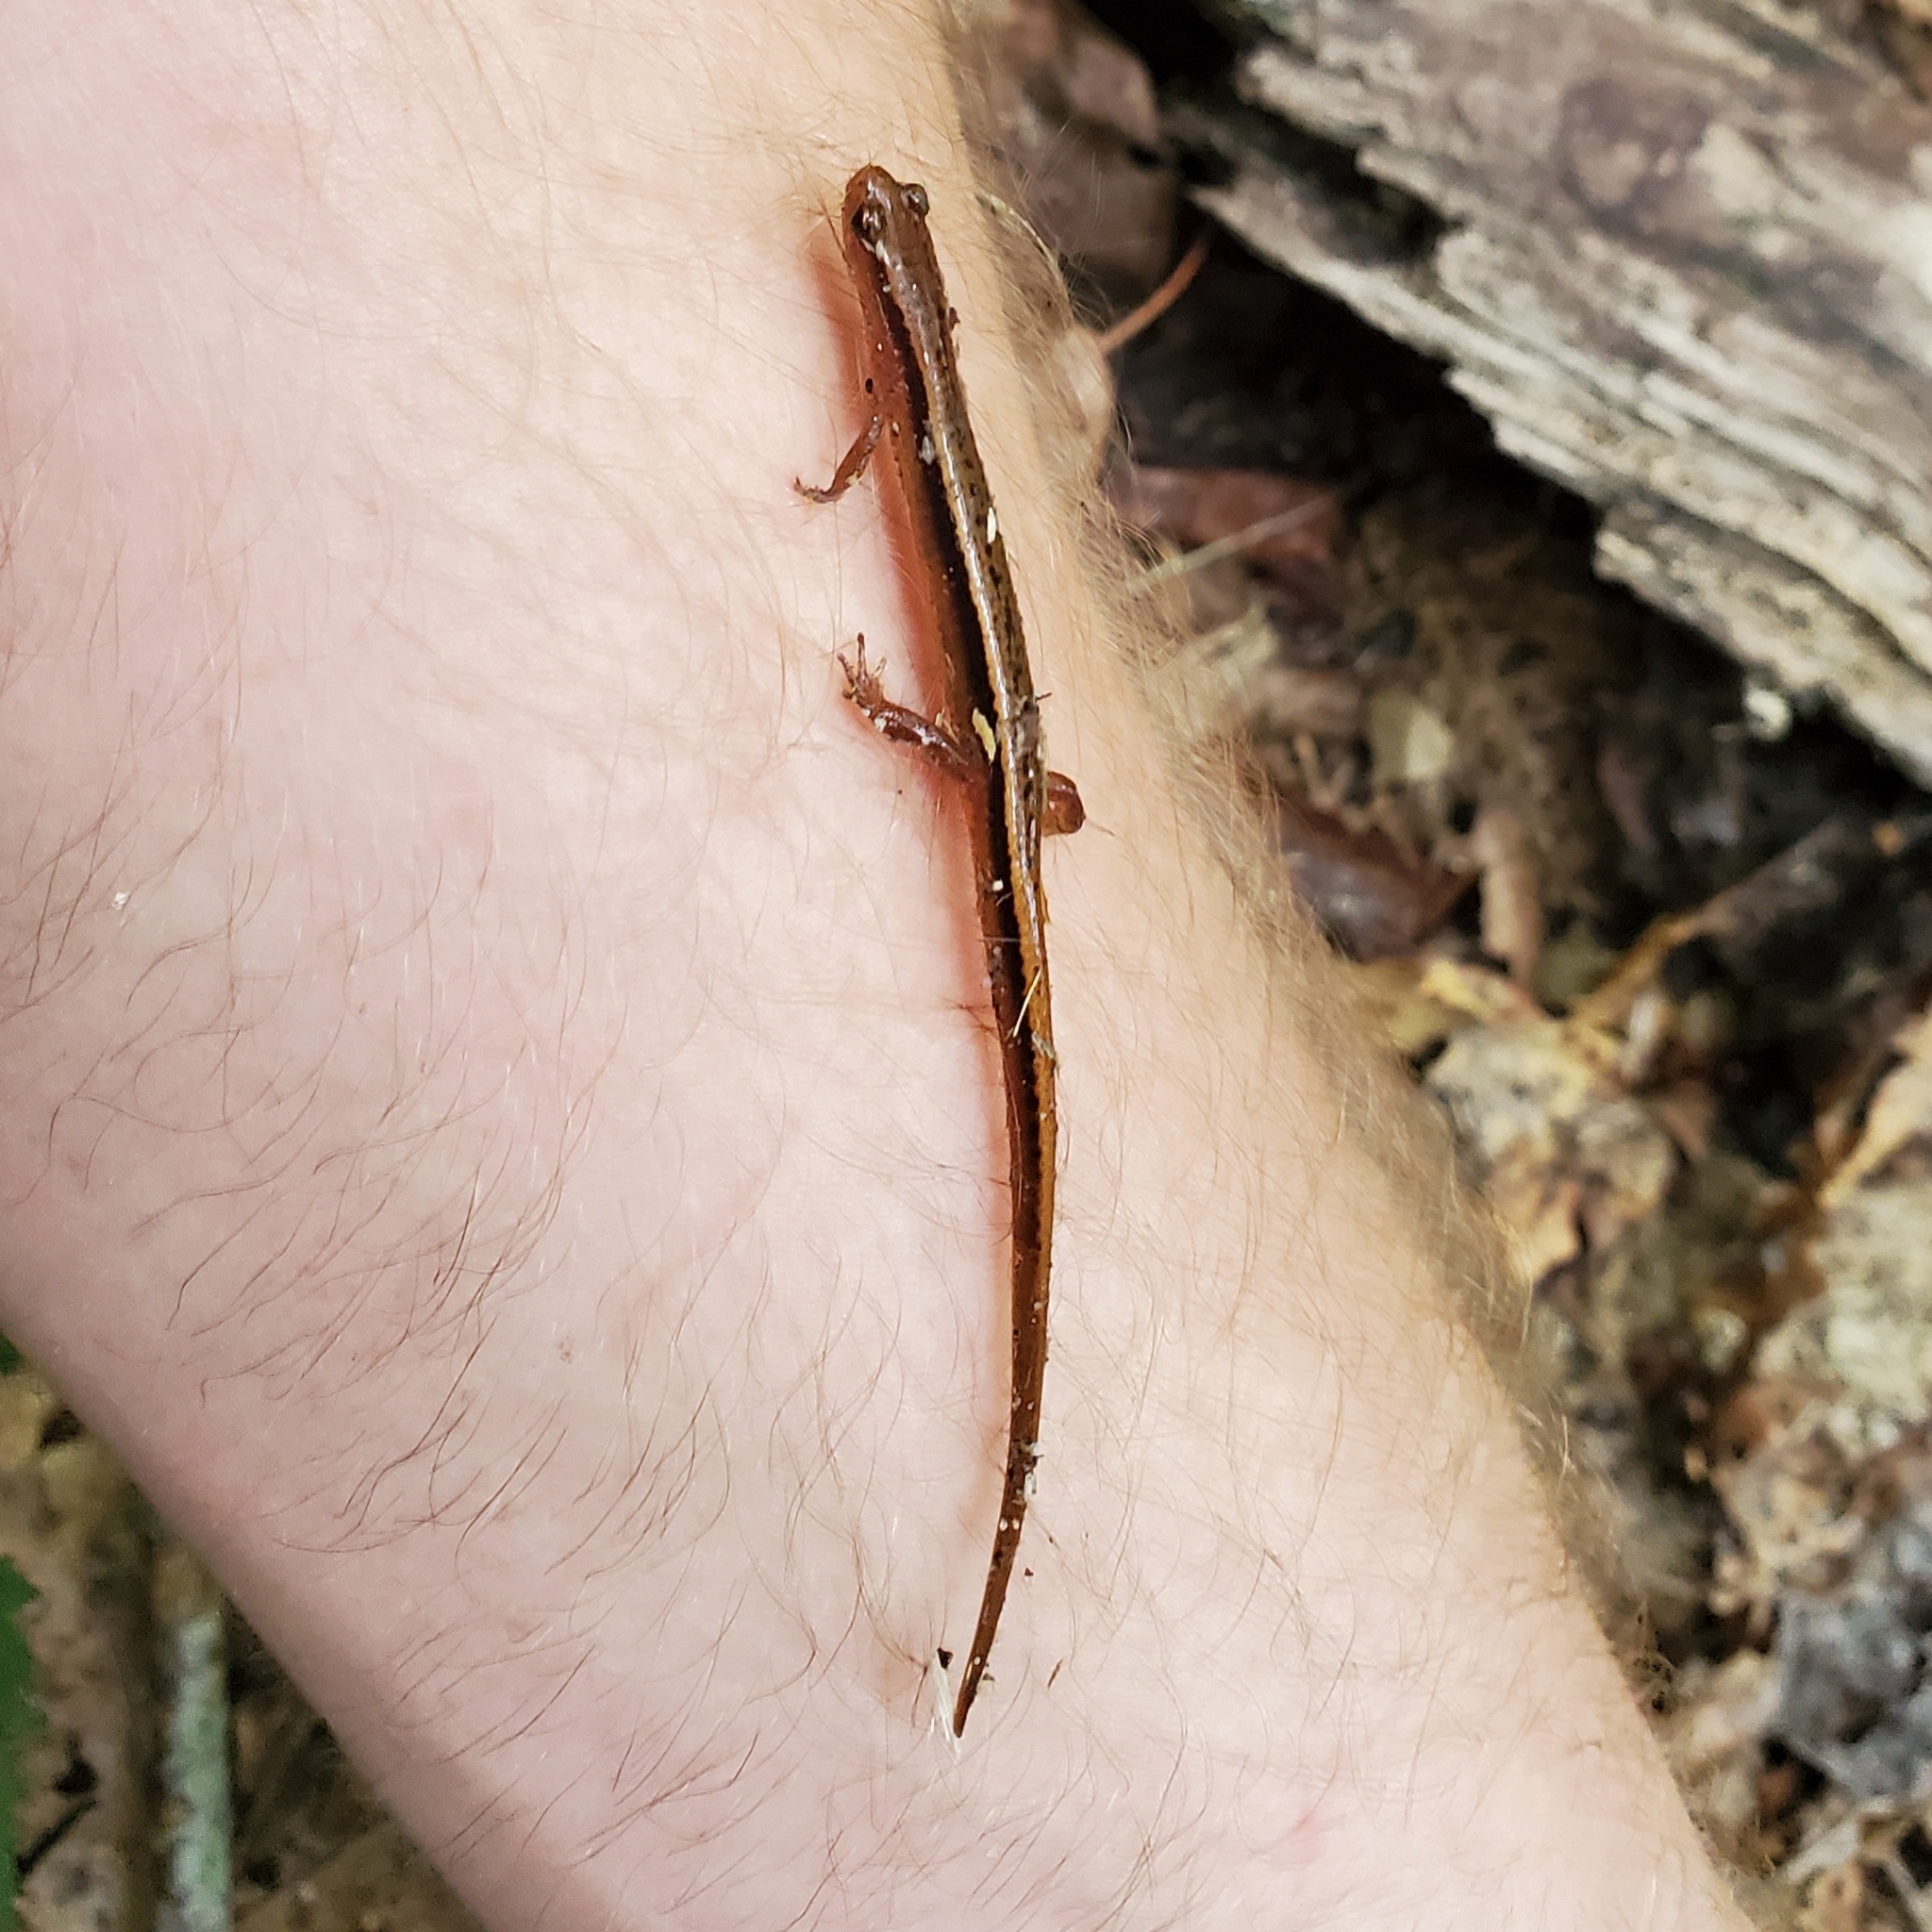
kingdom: Animalia
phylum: Chordata
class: Amphibia
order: Caudata
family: Plethodontidae
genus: Eurycea
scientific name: Eurycea wilderae
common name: Blue ridge two-lined salamander
